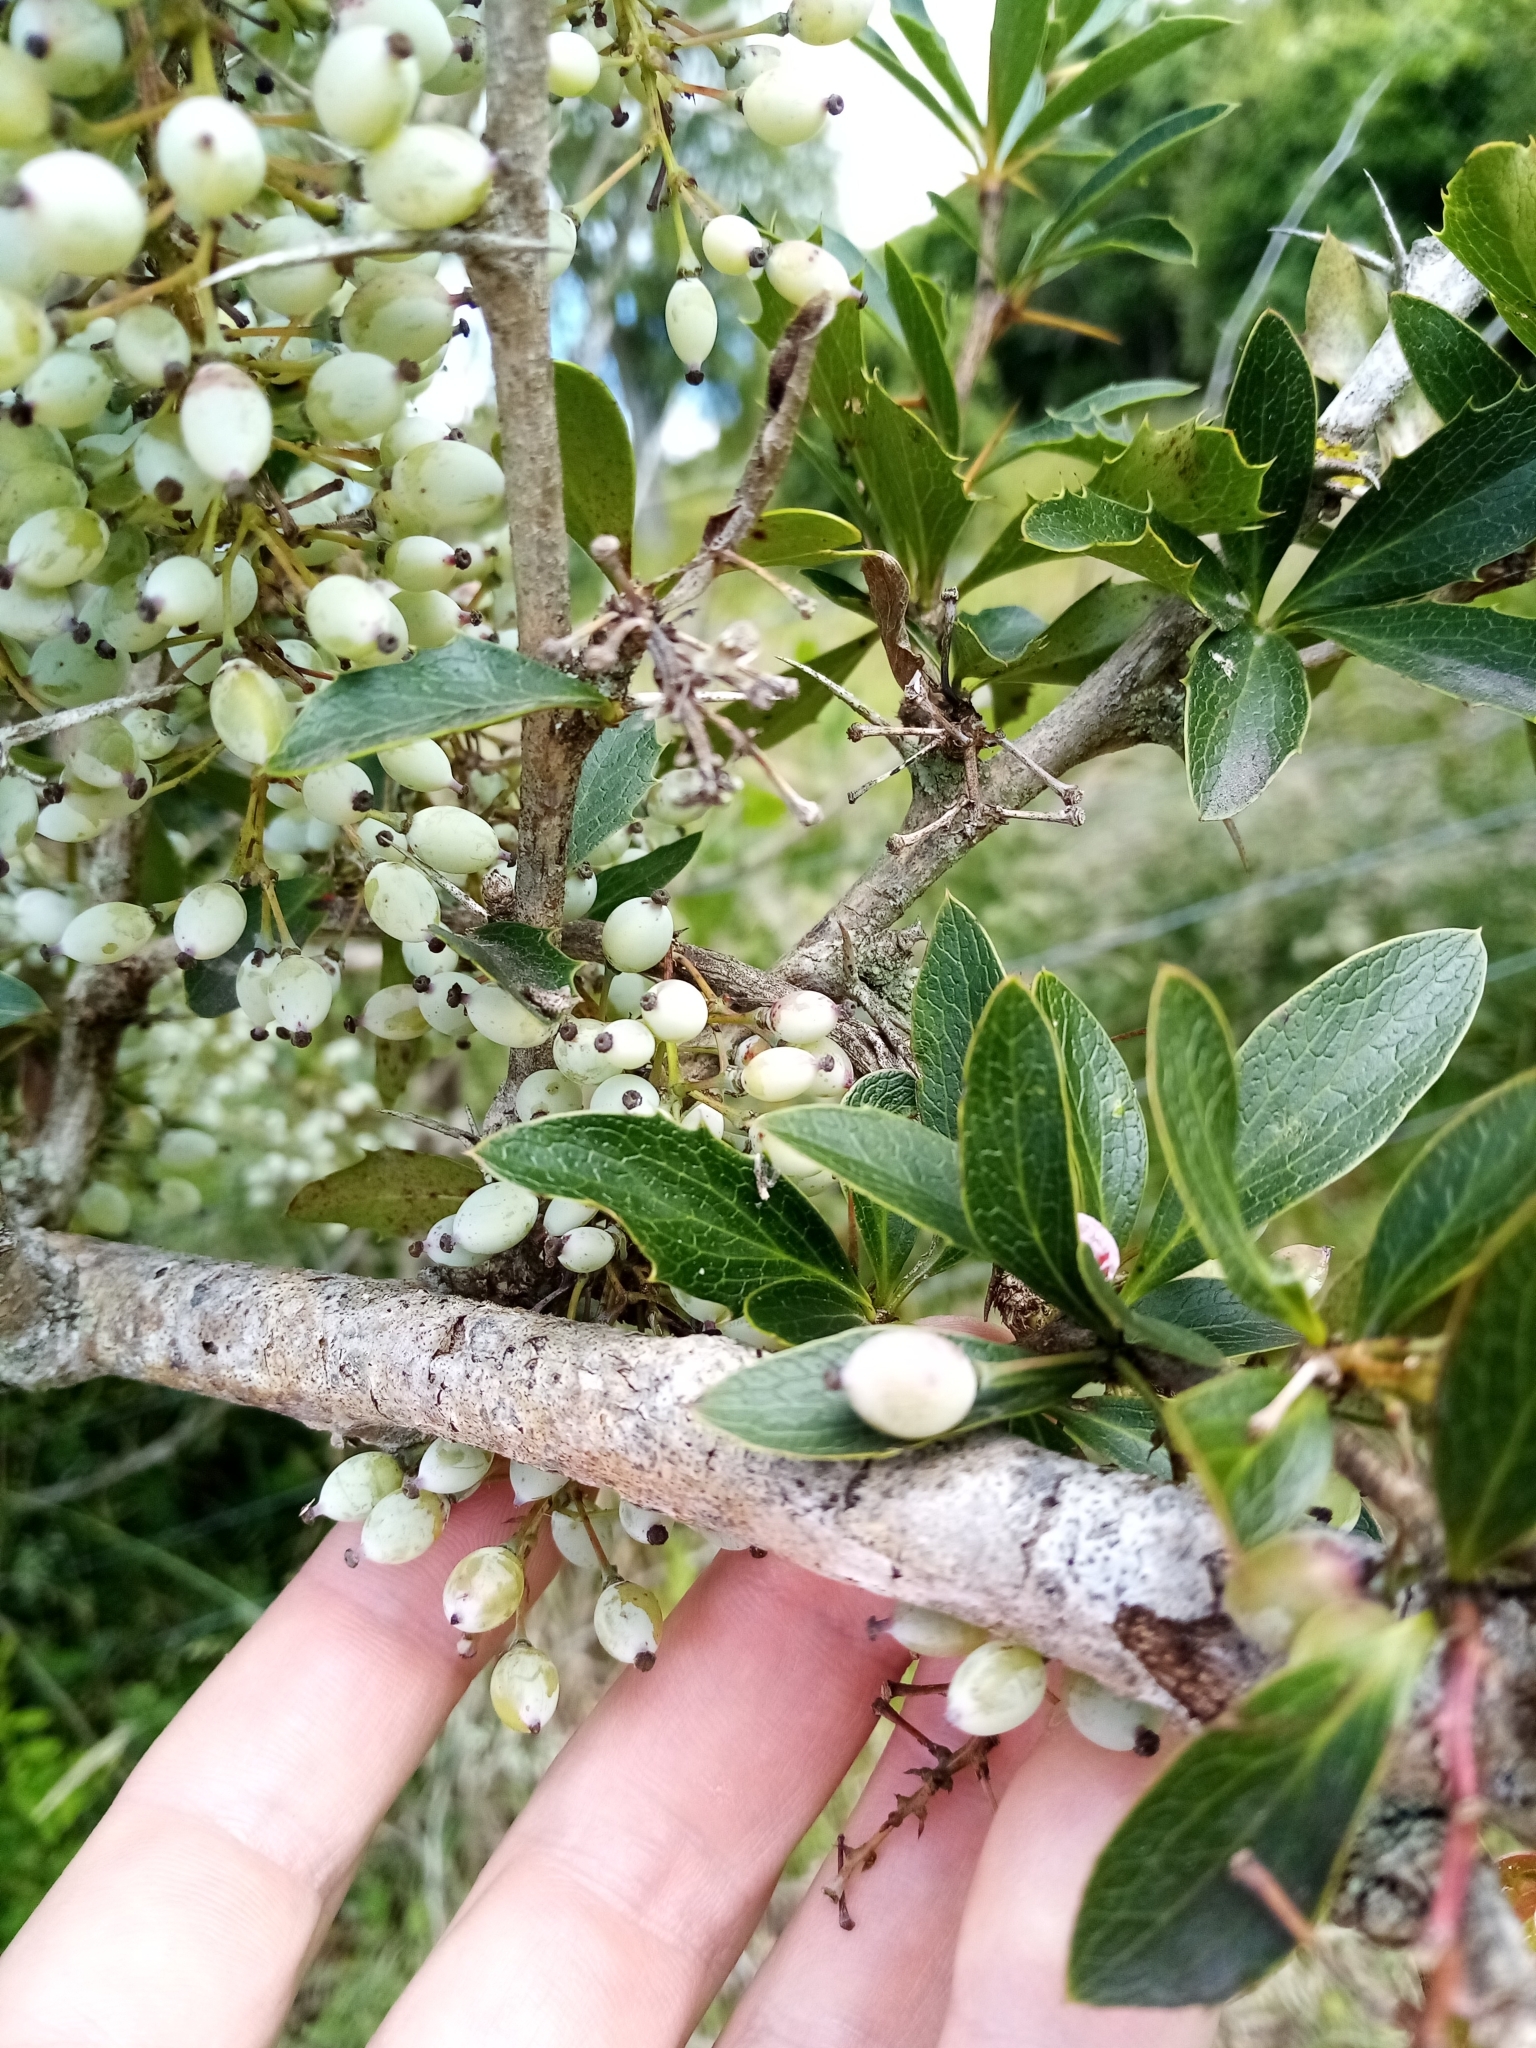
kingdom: Plantae
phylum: Tracheophyta
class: Magnoliopsida
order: Ranunculales
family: Berberidaceae
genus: Berberis
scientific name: Berberis glaucocarpa
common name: Great barberry
